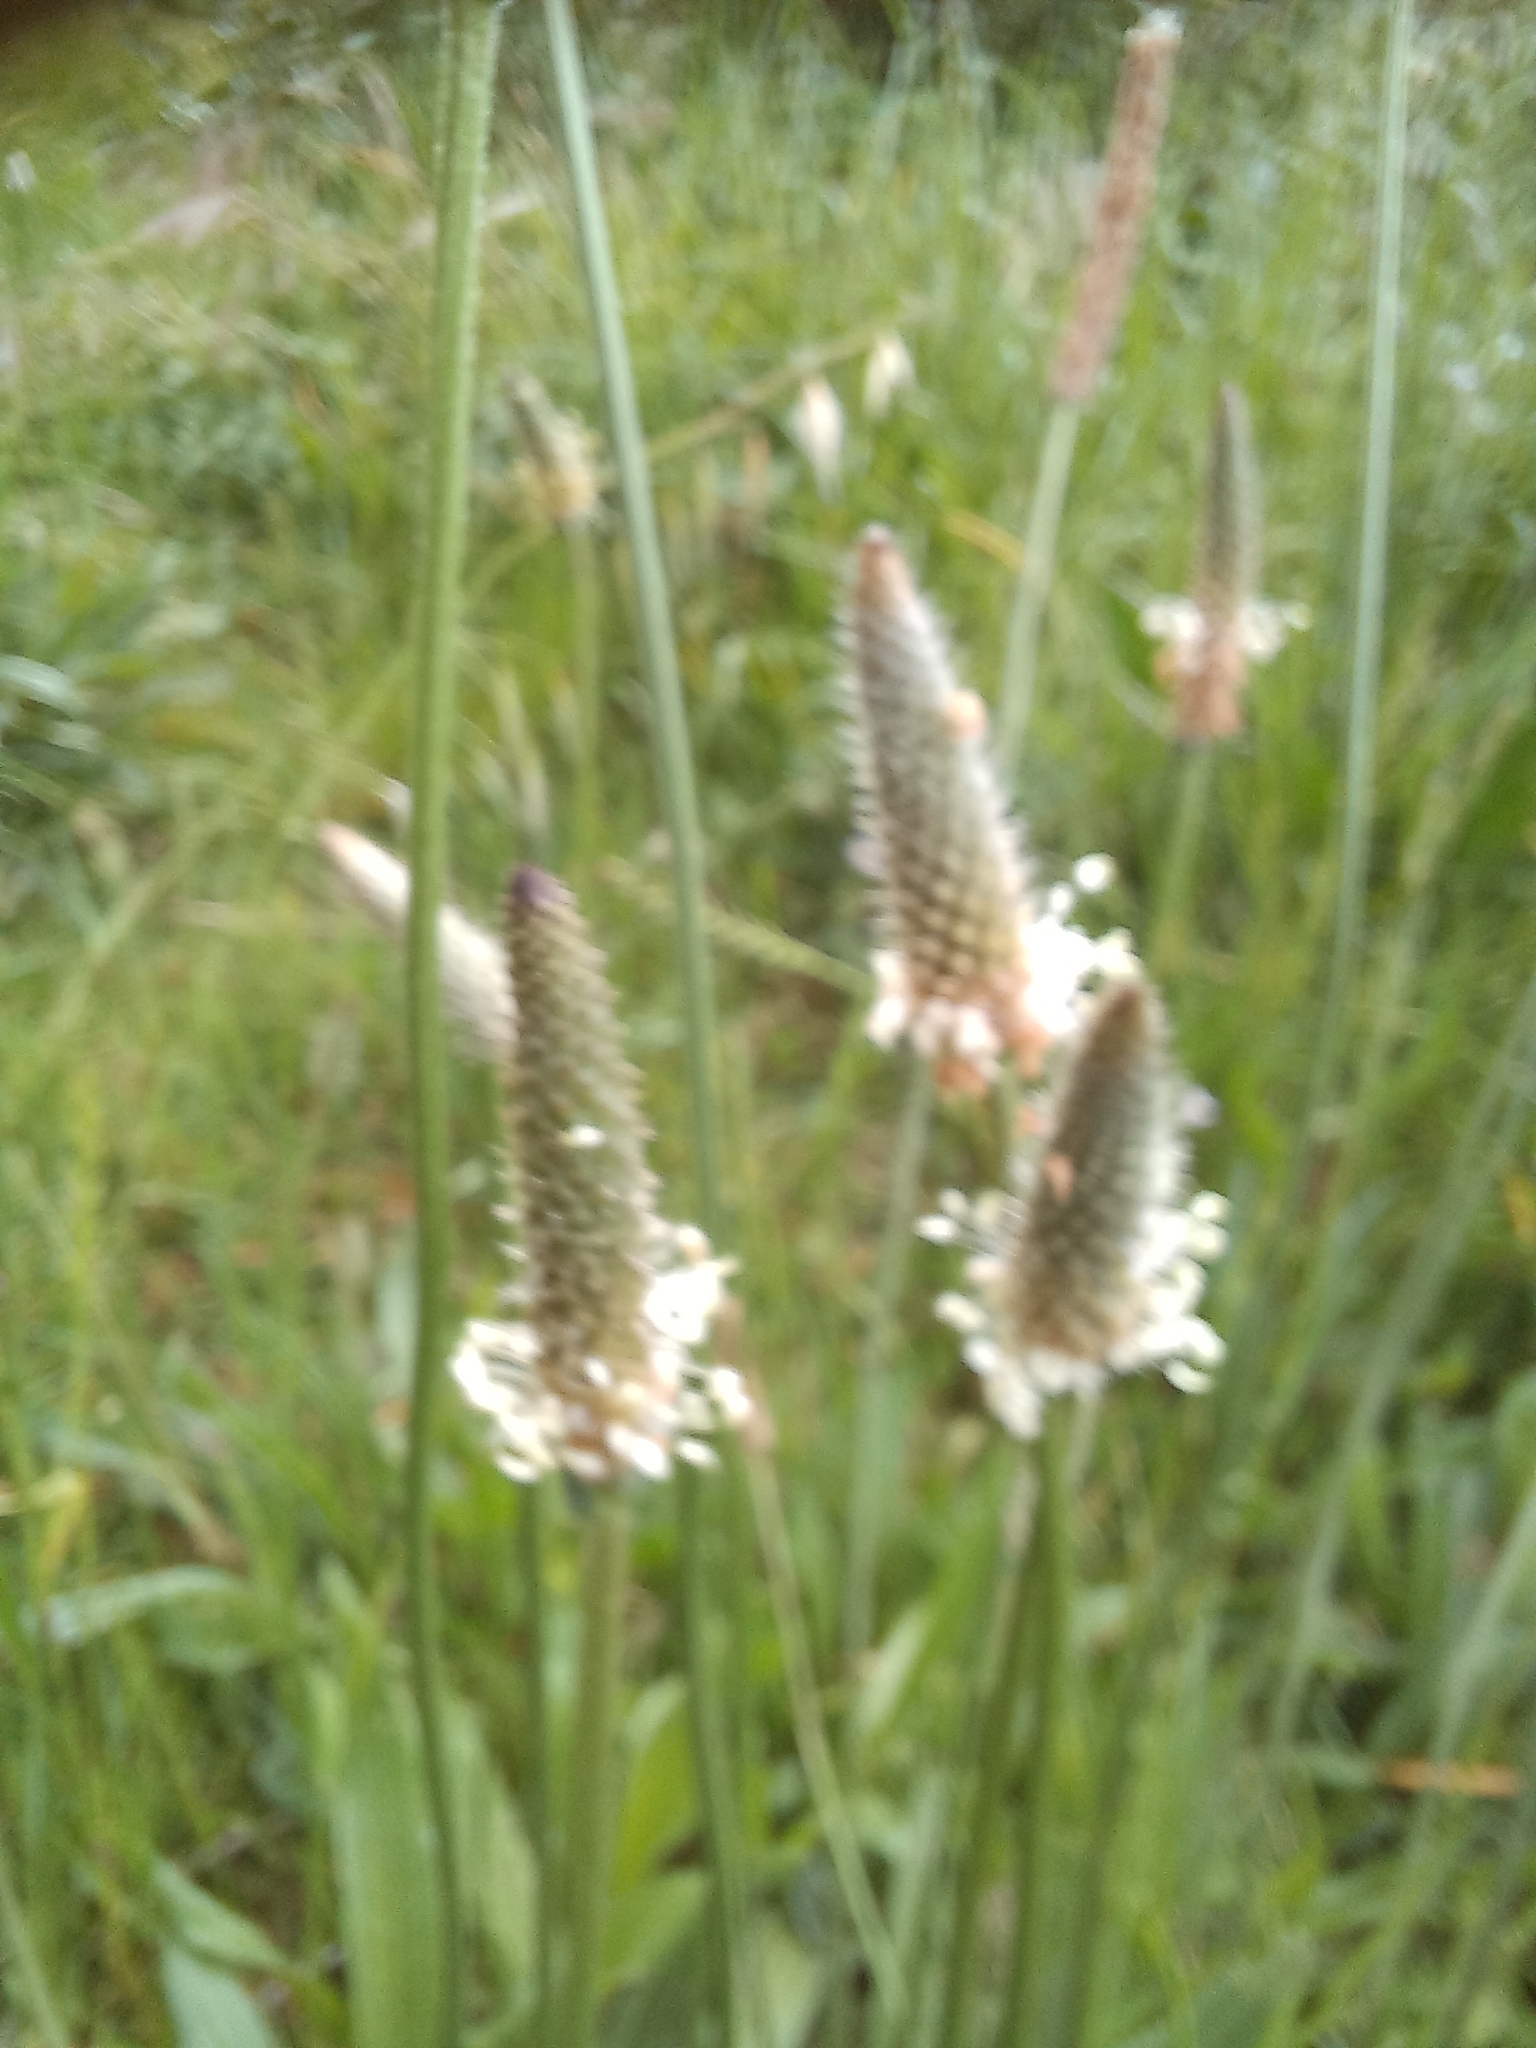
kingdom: Plantae
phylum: Tracheophyta
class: Magnoliopsida
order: Lamiales
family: Plantaginaceae
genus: Plantago
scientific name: Plantago lanceolata
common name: Ribwort plantain
